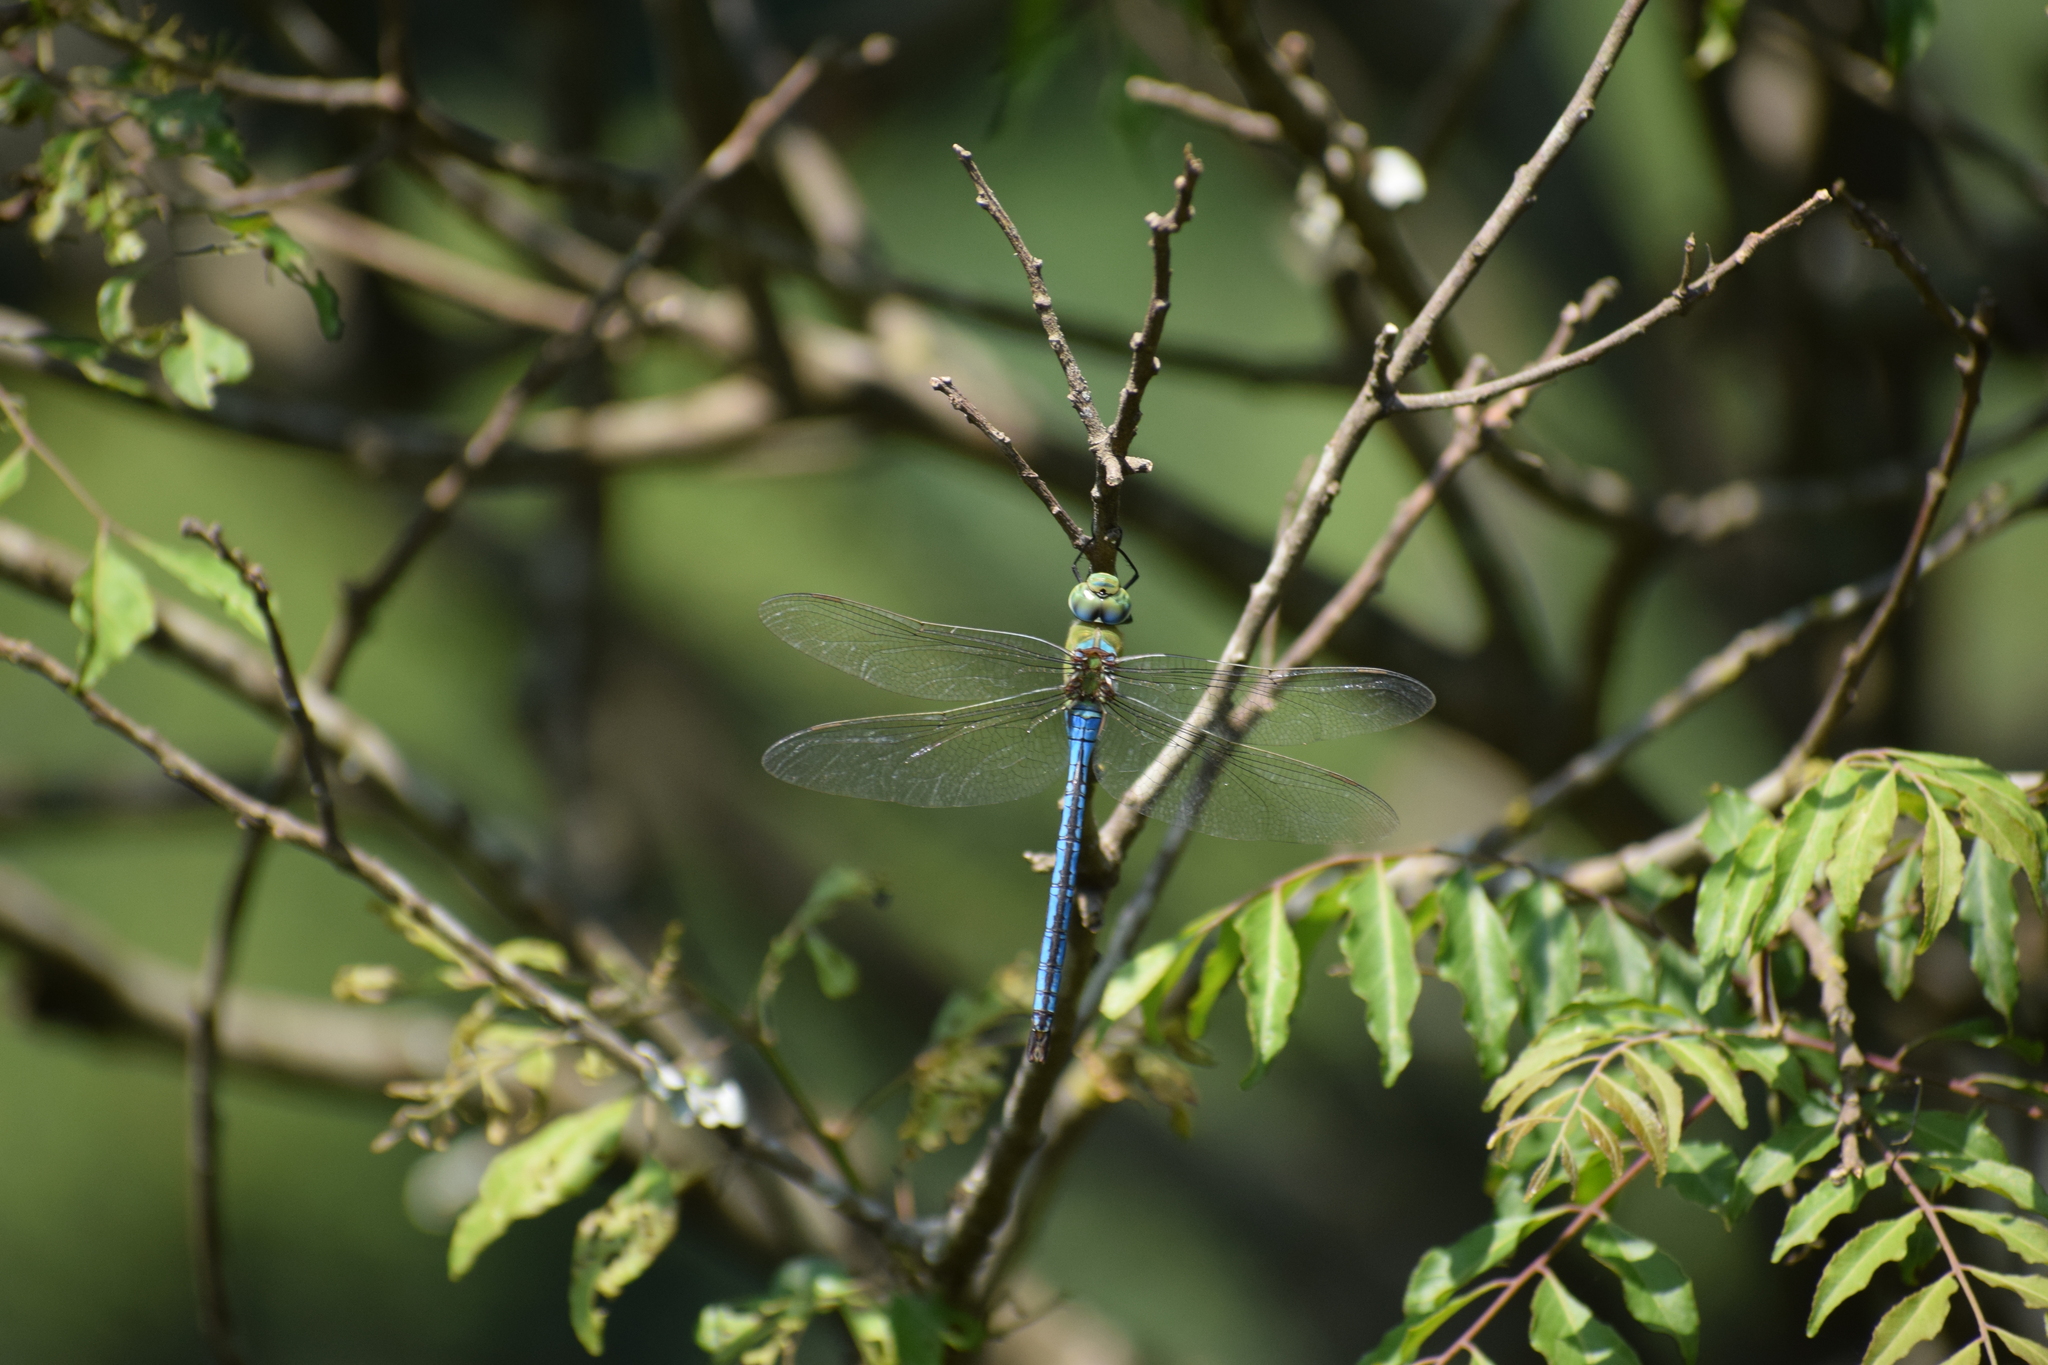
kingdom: Animalia
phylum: Arthropoda
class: Insecta
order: Odonata
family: Aeshnidae
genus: Anax
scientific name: Anax imperator
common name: Emperor dragonfly
